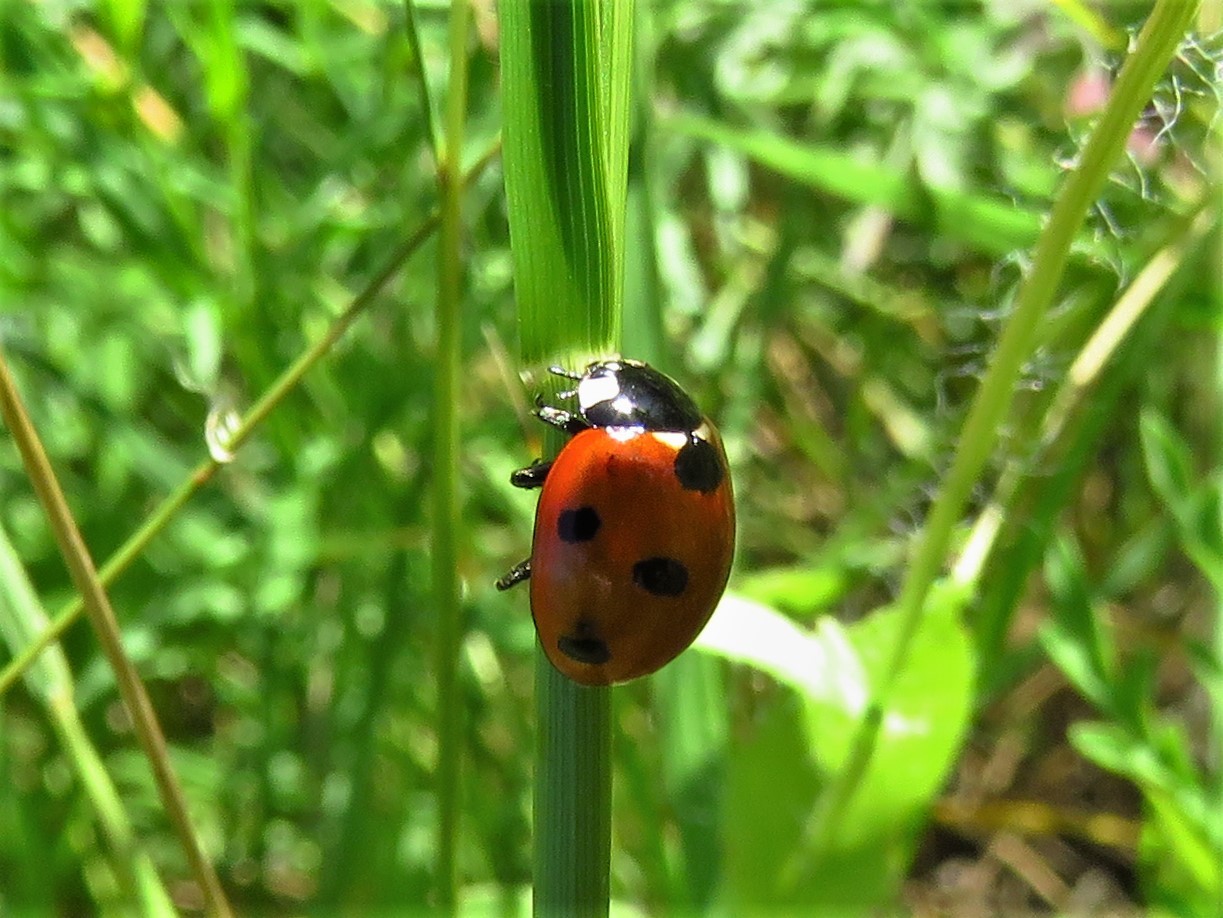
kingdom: Animalia
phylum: Arthropoda
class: Insecta
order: Coleoptera
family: Coccinellidae
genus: Coccinella
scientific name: Coccinella septempunctata
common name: Sevenspotted lady beetle
